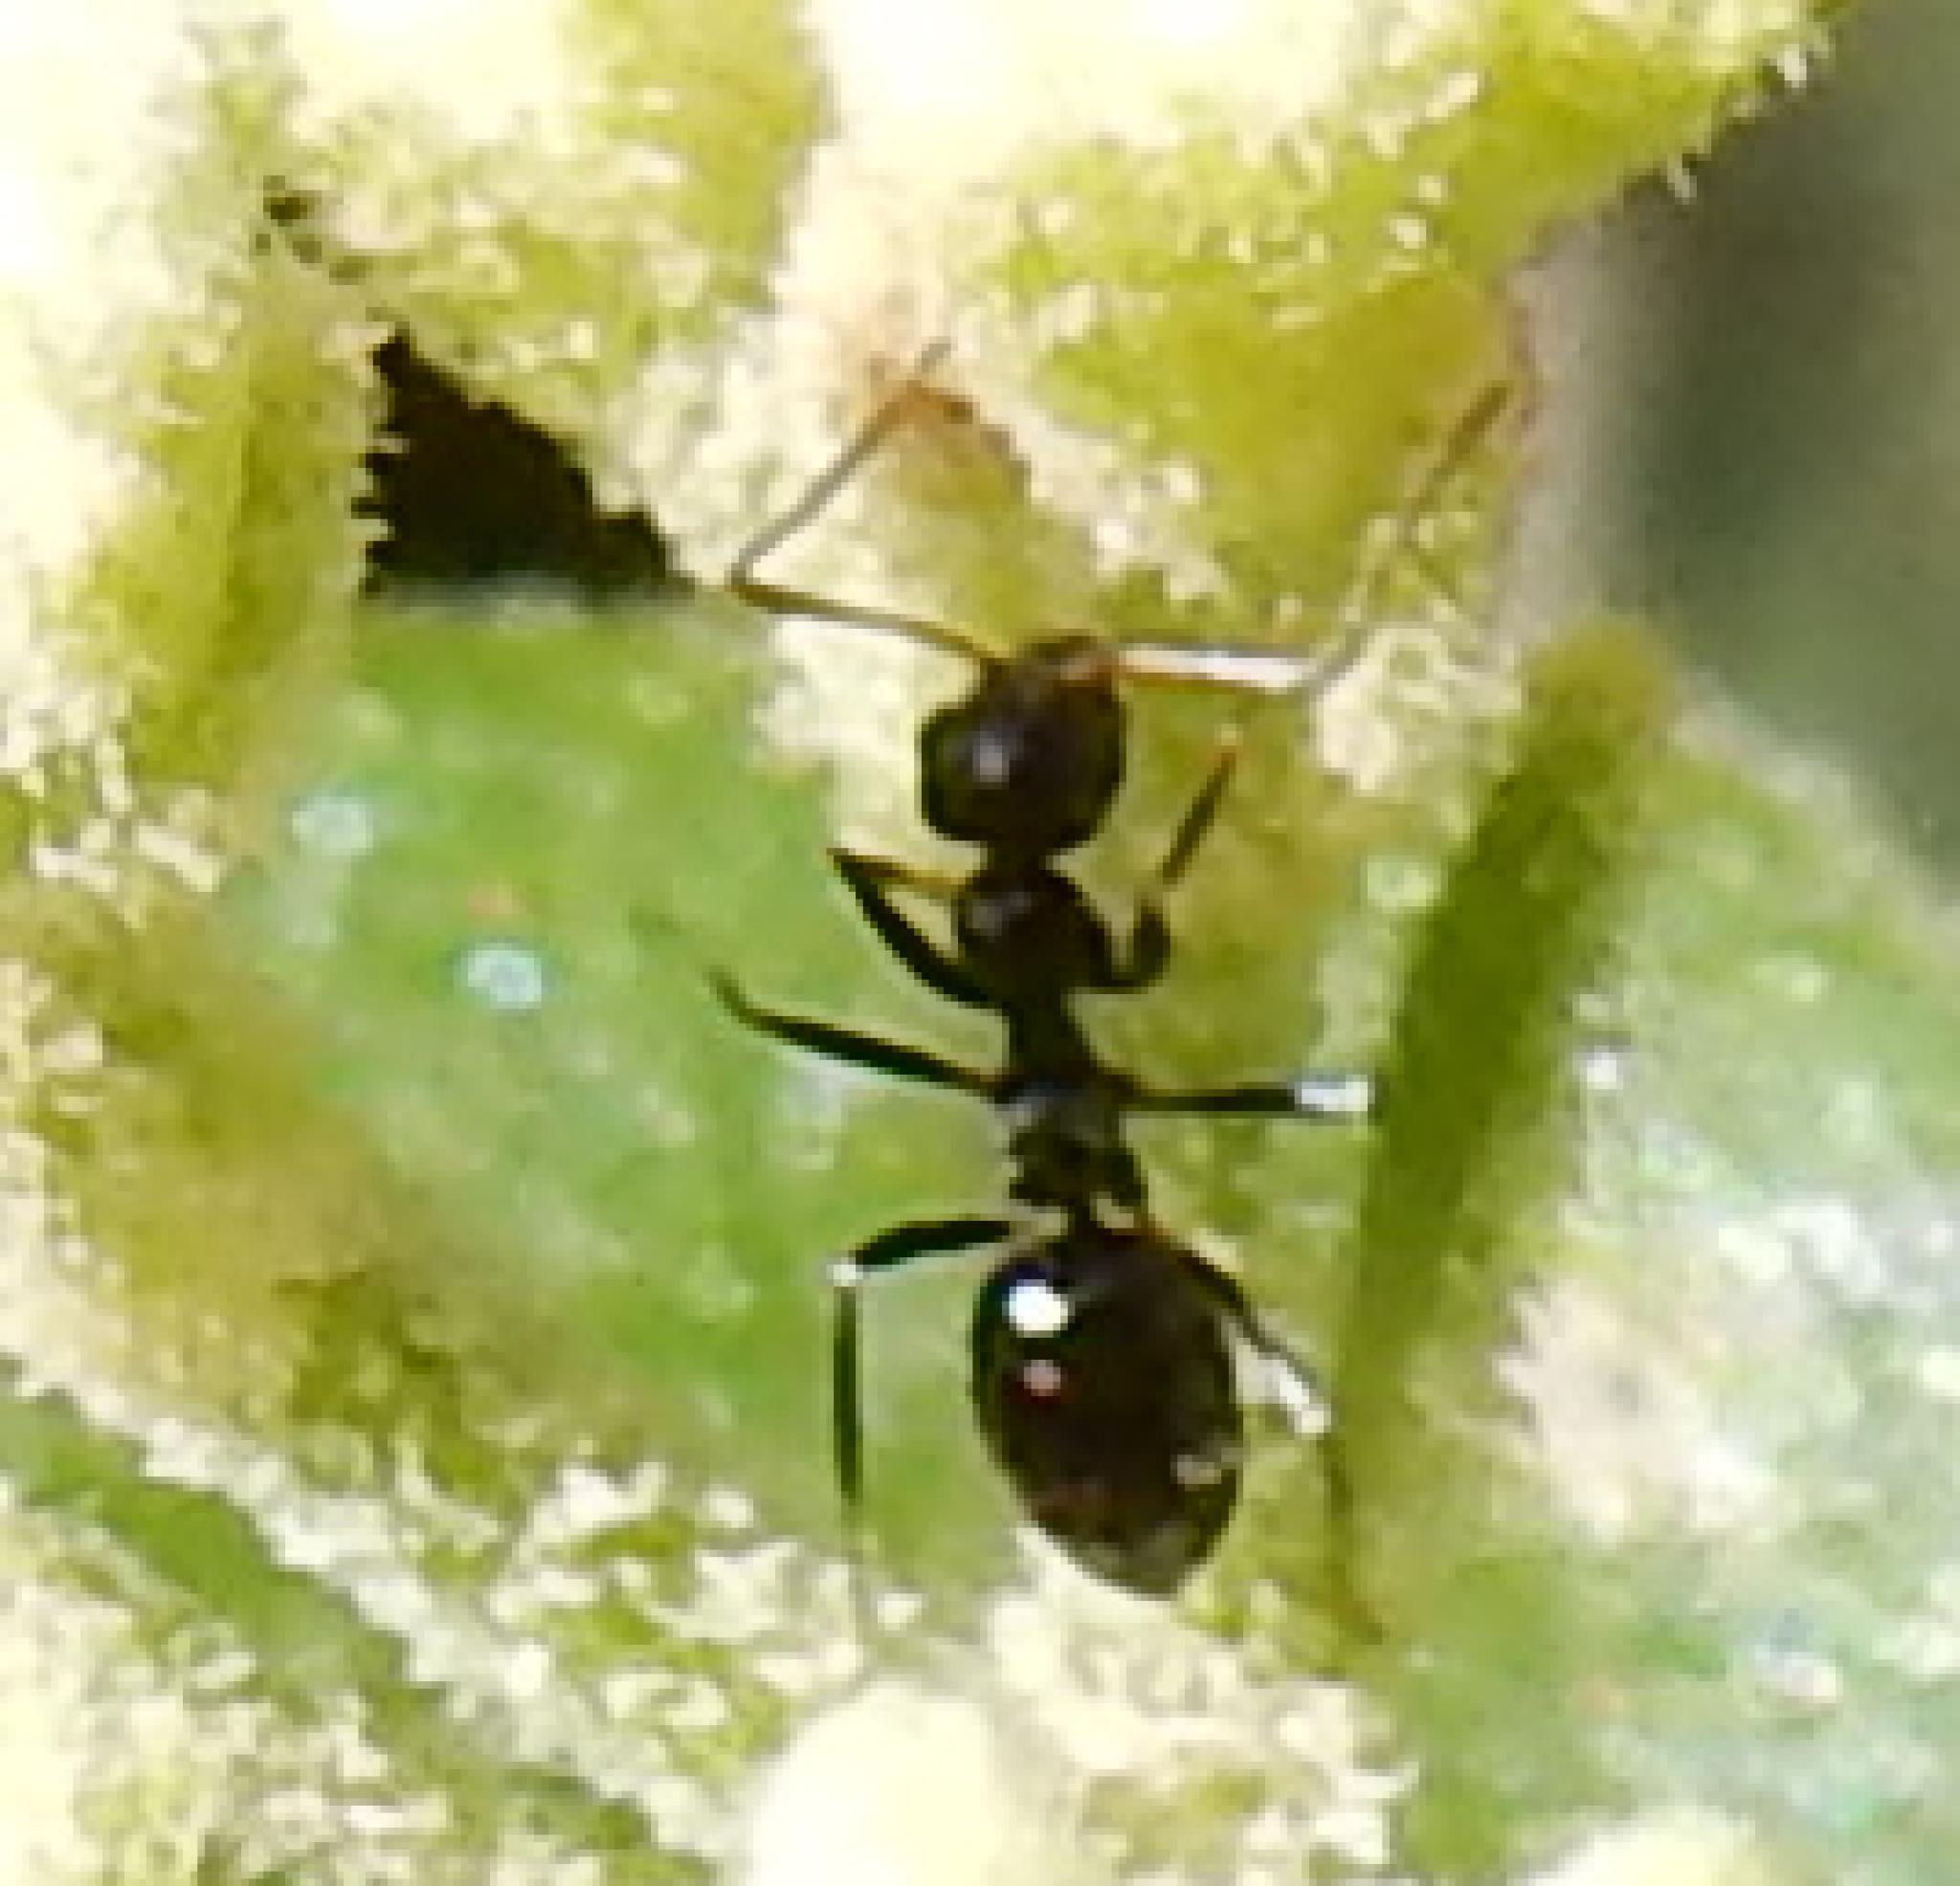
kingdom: Animalia
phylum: Arthropoda
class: Insecta
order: Hymenoptera
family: Formicidae
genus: Lepisiota
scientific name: Lepisiota capensis
